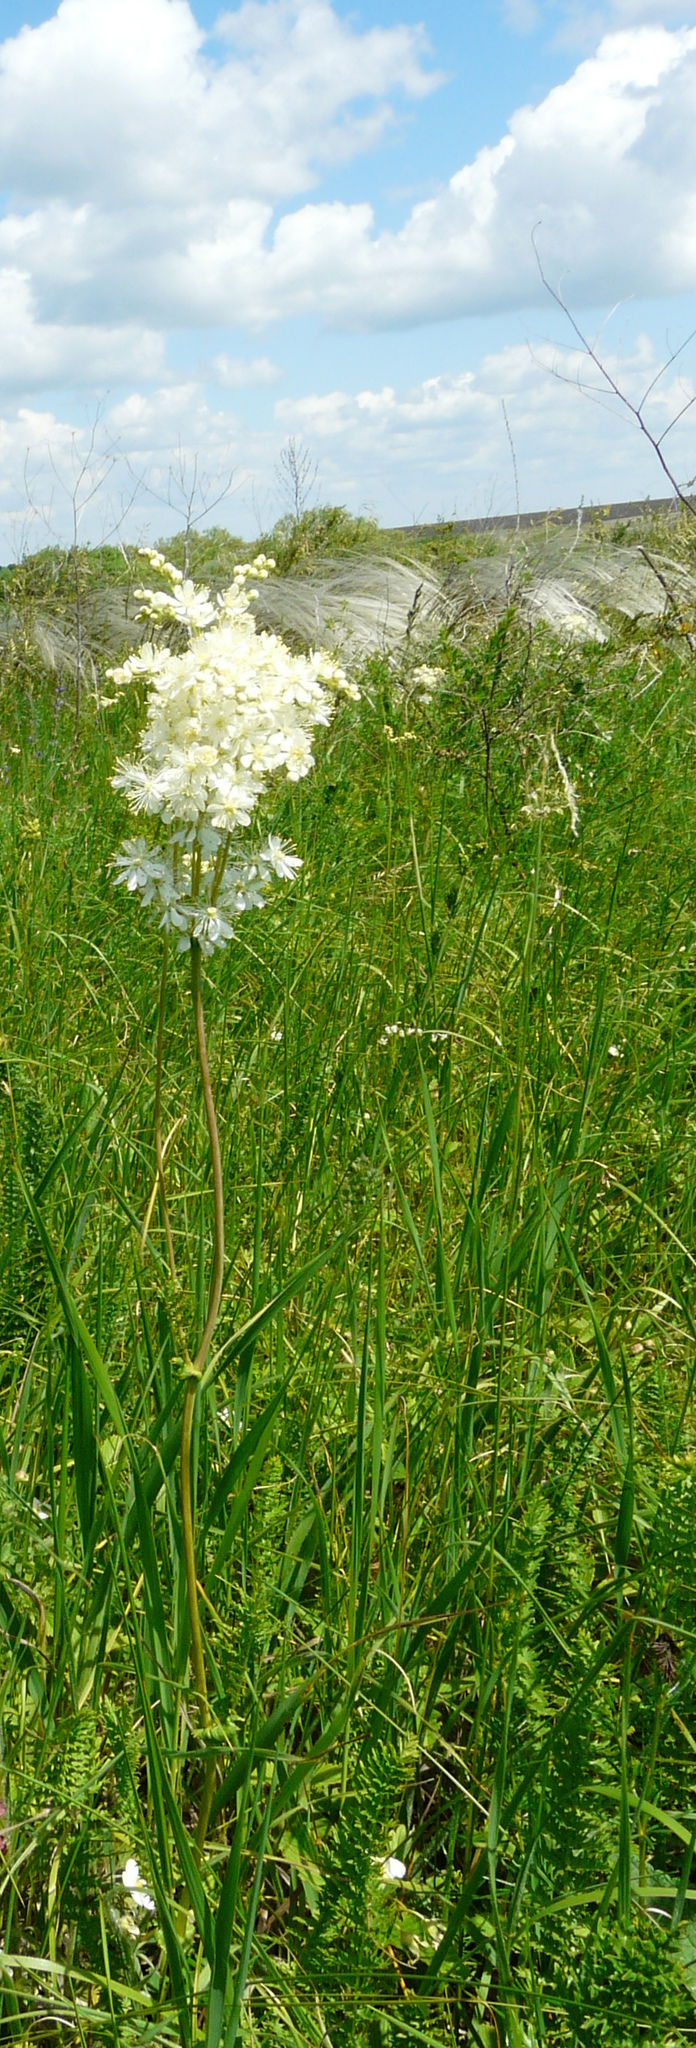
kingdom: Plantae
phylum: Tracheophyta
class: Magnoliopsida
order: Rosales
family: Rosaceae
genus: Filipendula
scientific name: Filipendula vulgaris
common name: Dropwort
